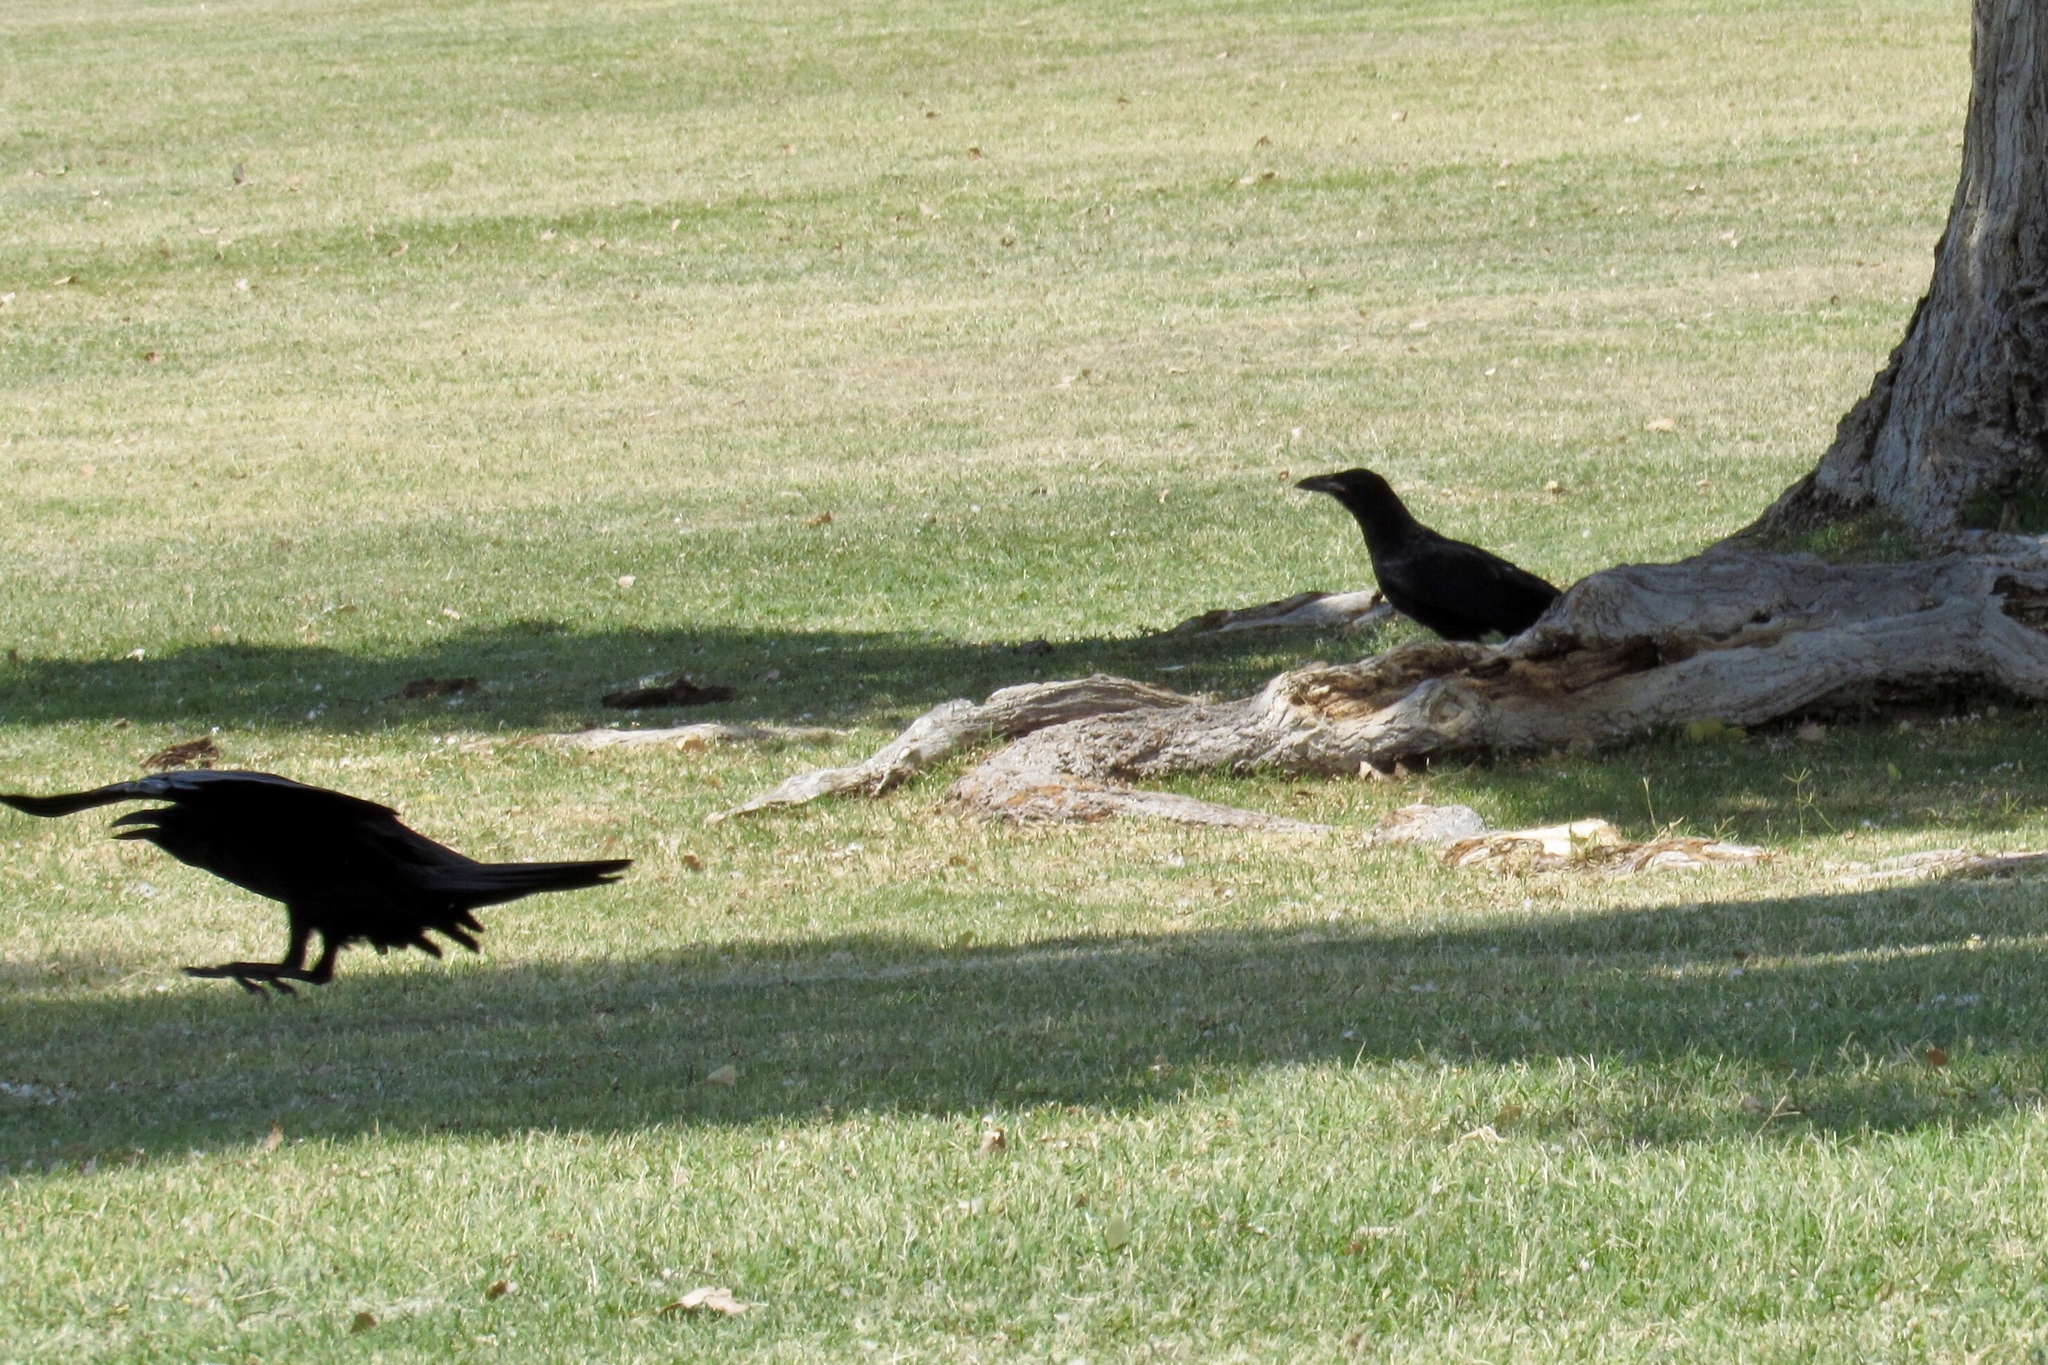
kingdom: Animalia
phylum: Chordata
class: Aves
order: Passeriformes
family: Corvidae
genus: Corvus
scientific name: Corvus corax
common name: Common raven
